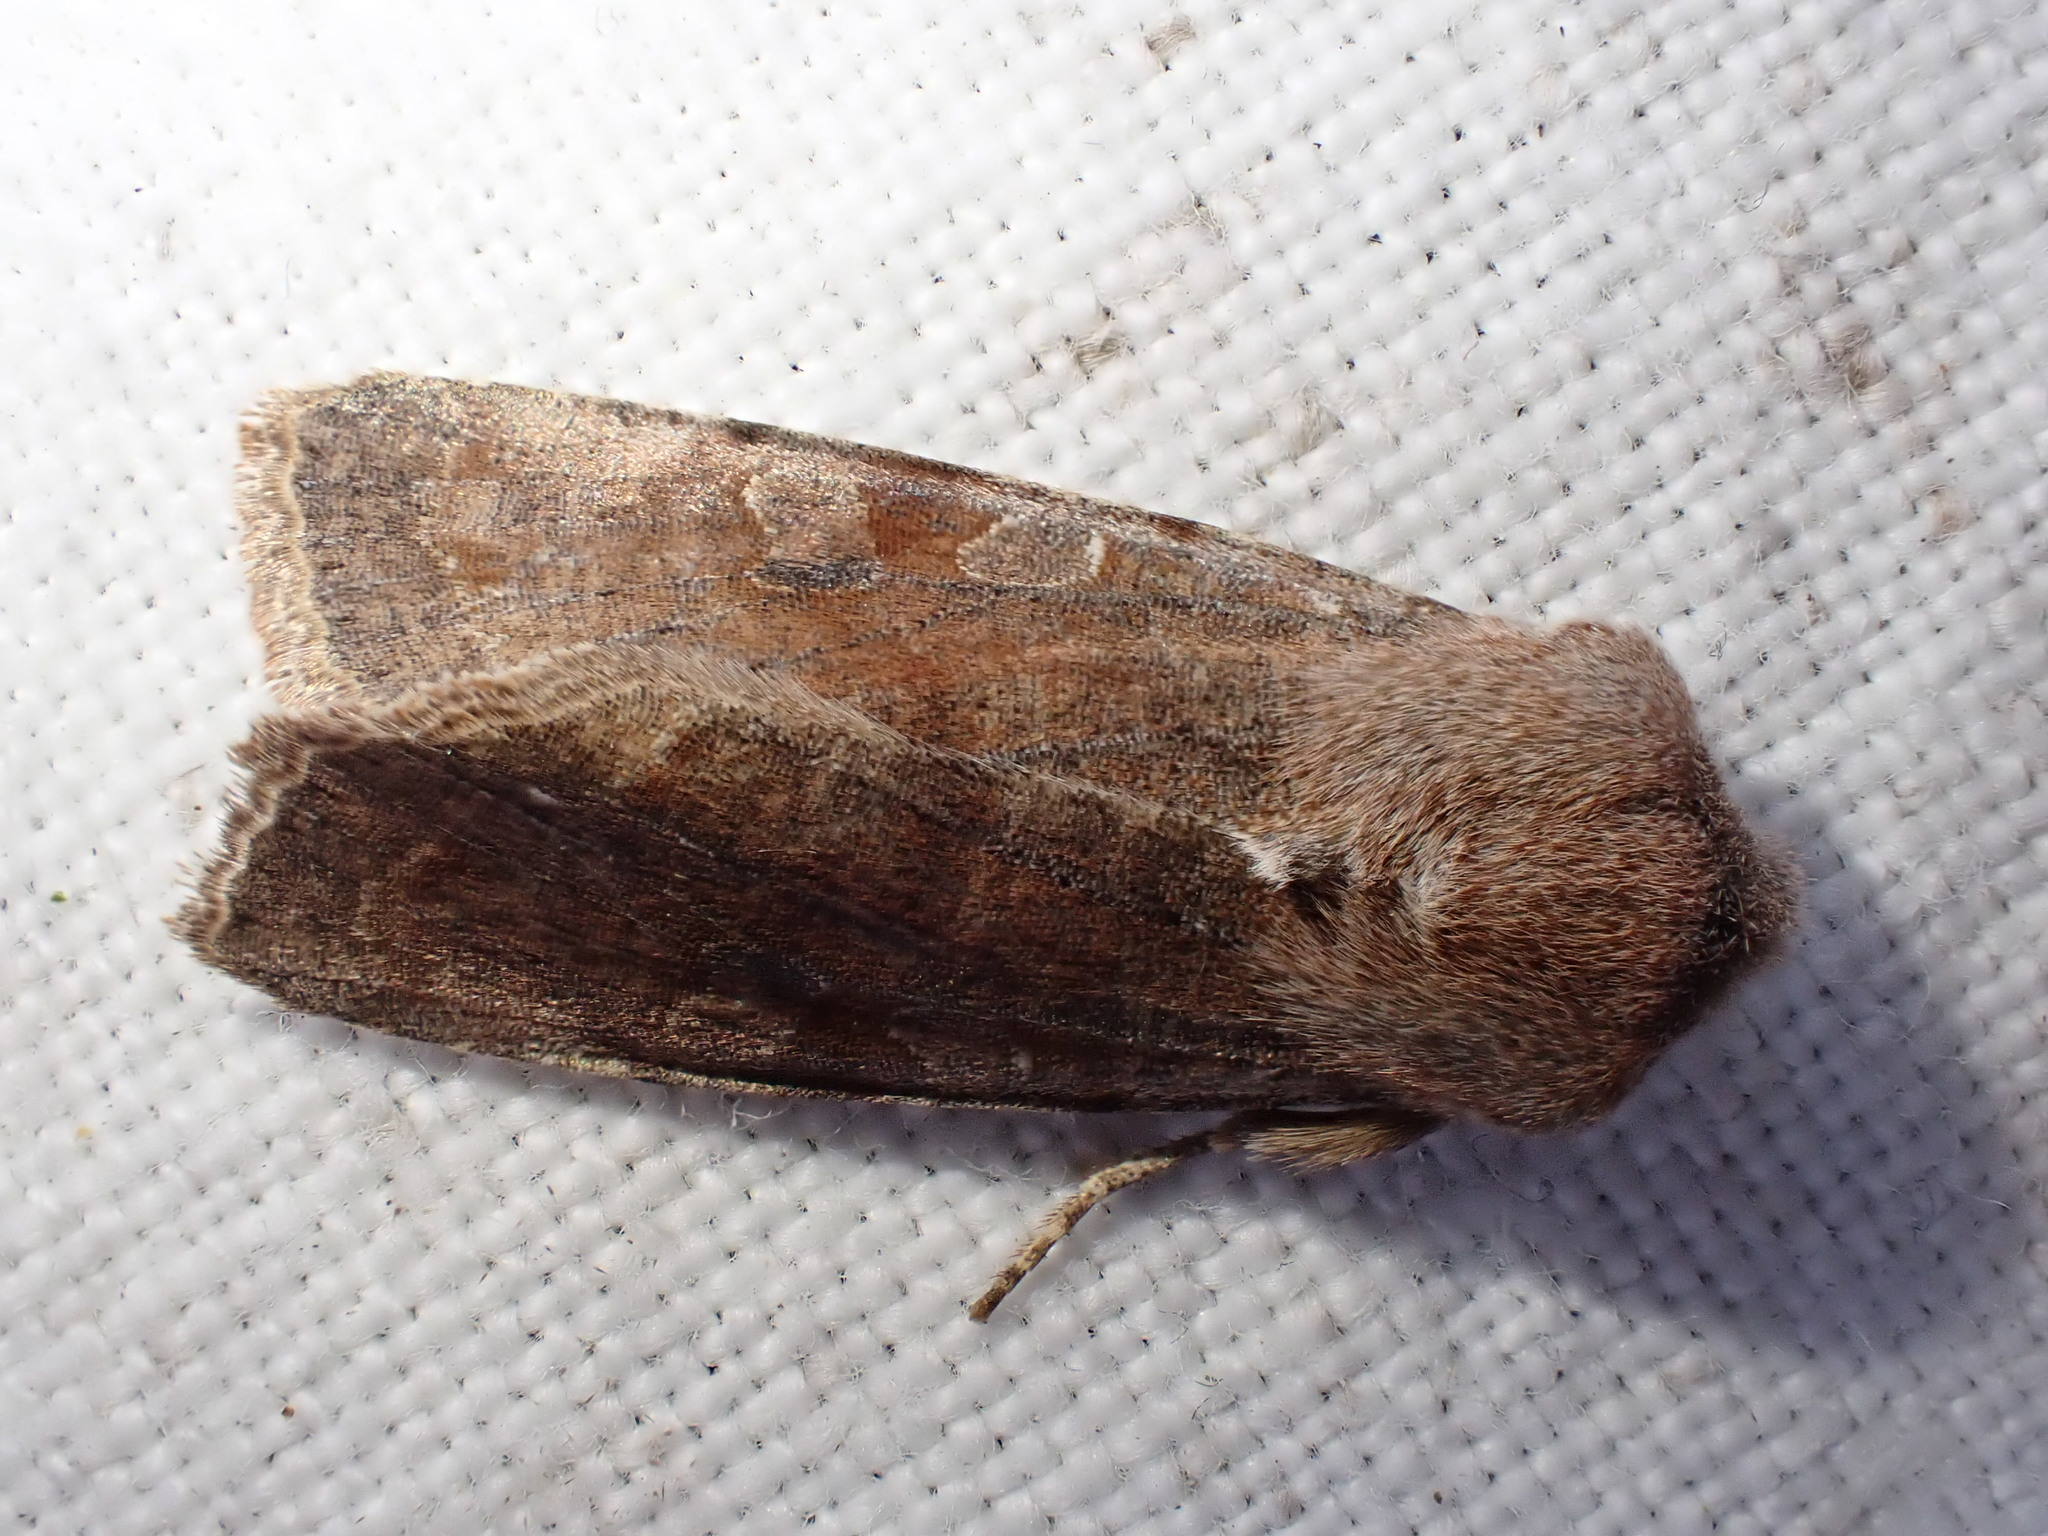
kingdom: Animalia
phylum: Arthropoda
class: Insecta
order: Lepidoptera
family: Noctuidae
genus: Orthosia
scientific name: Orthosia incerta
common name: Clouded drab
